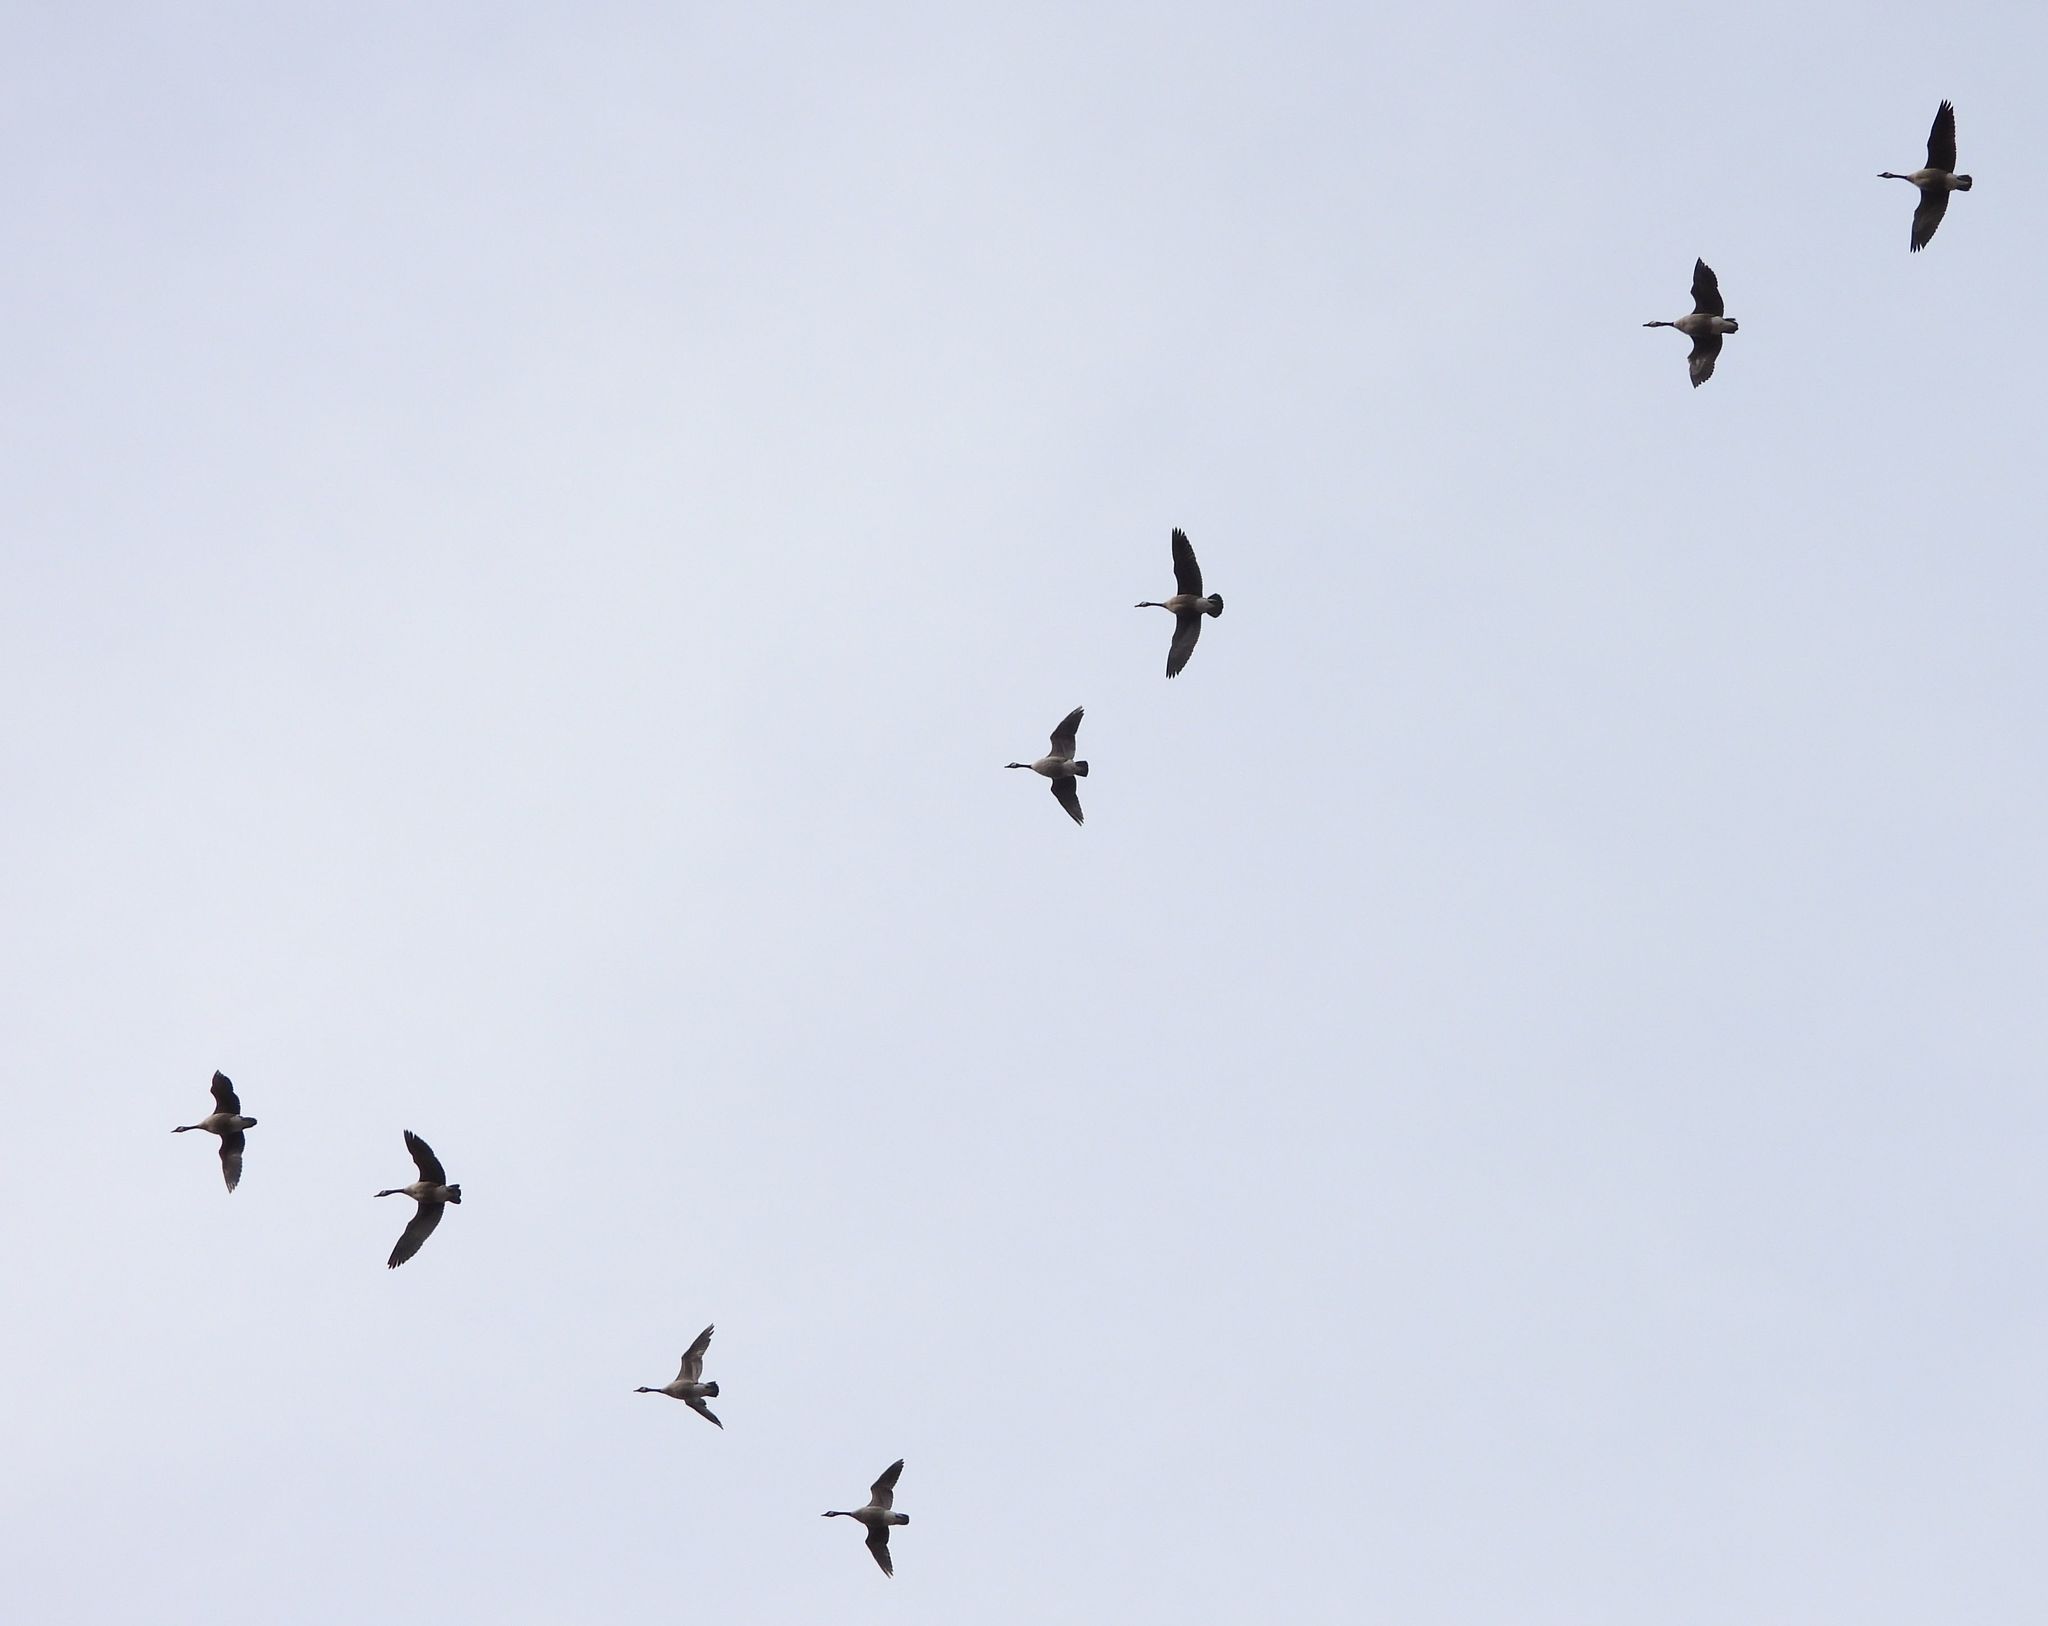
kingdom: Animalia
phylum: Chordata
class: Aves
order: Anseriformes
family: Anatidae
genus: Branta
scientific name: Branta canadensis
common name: Canada goose
